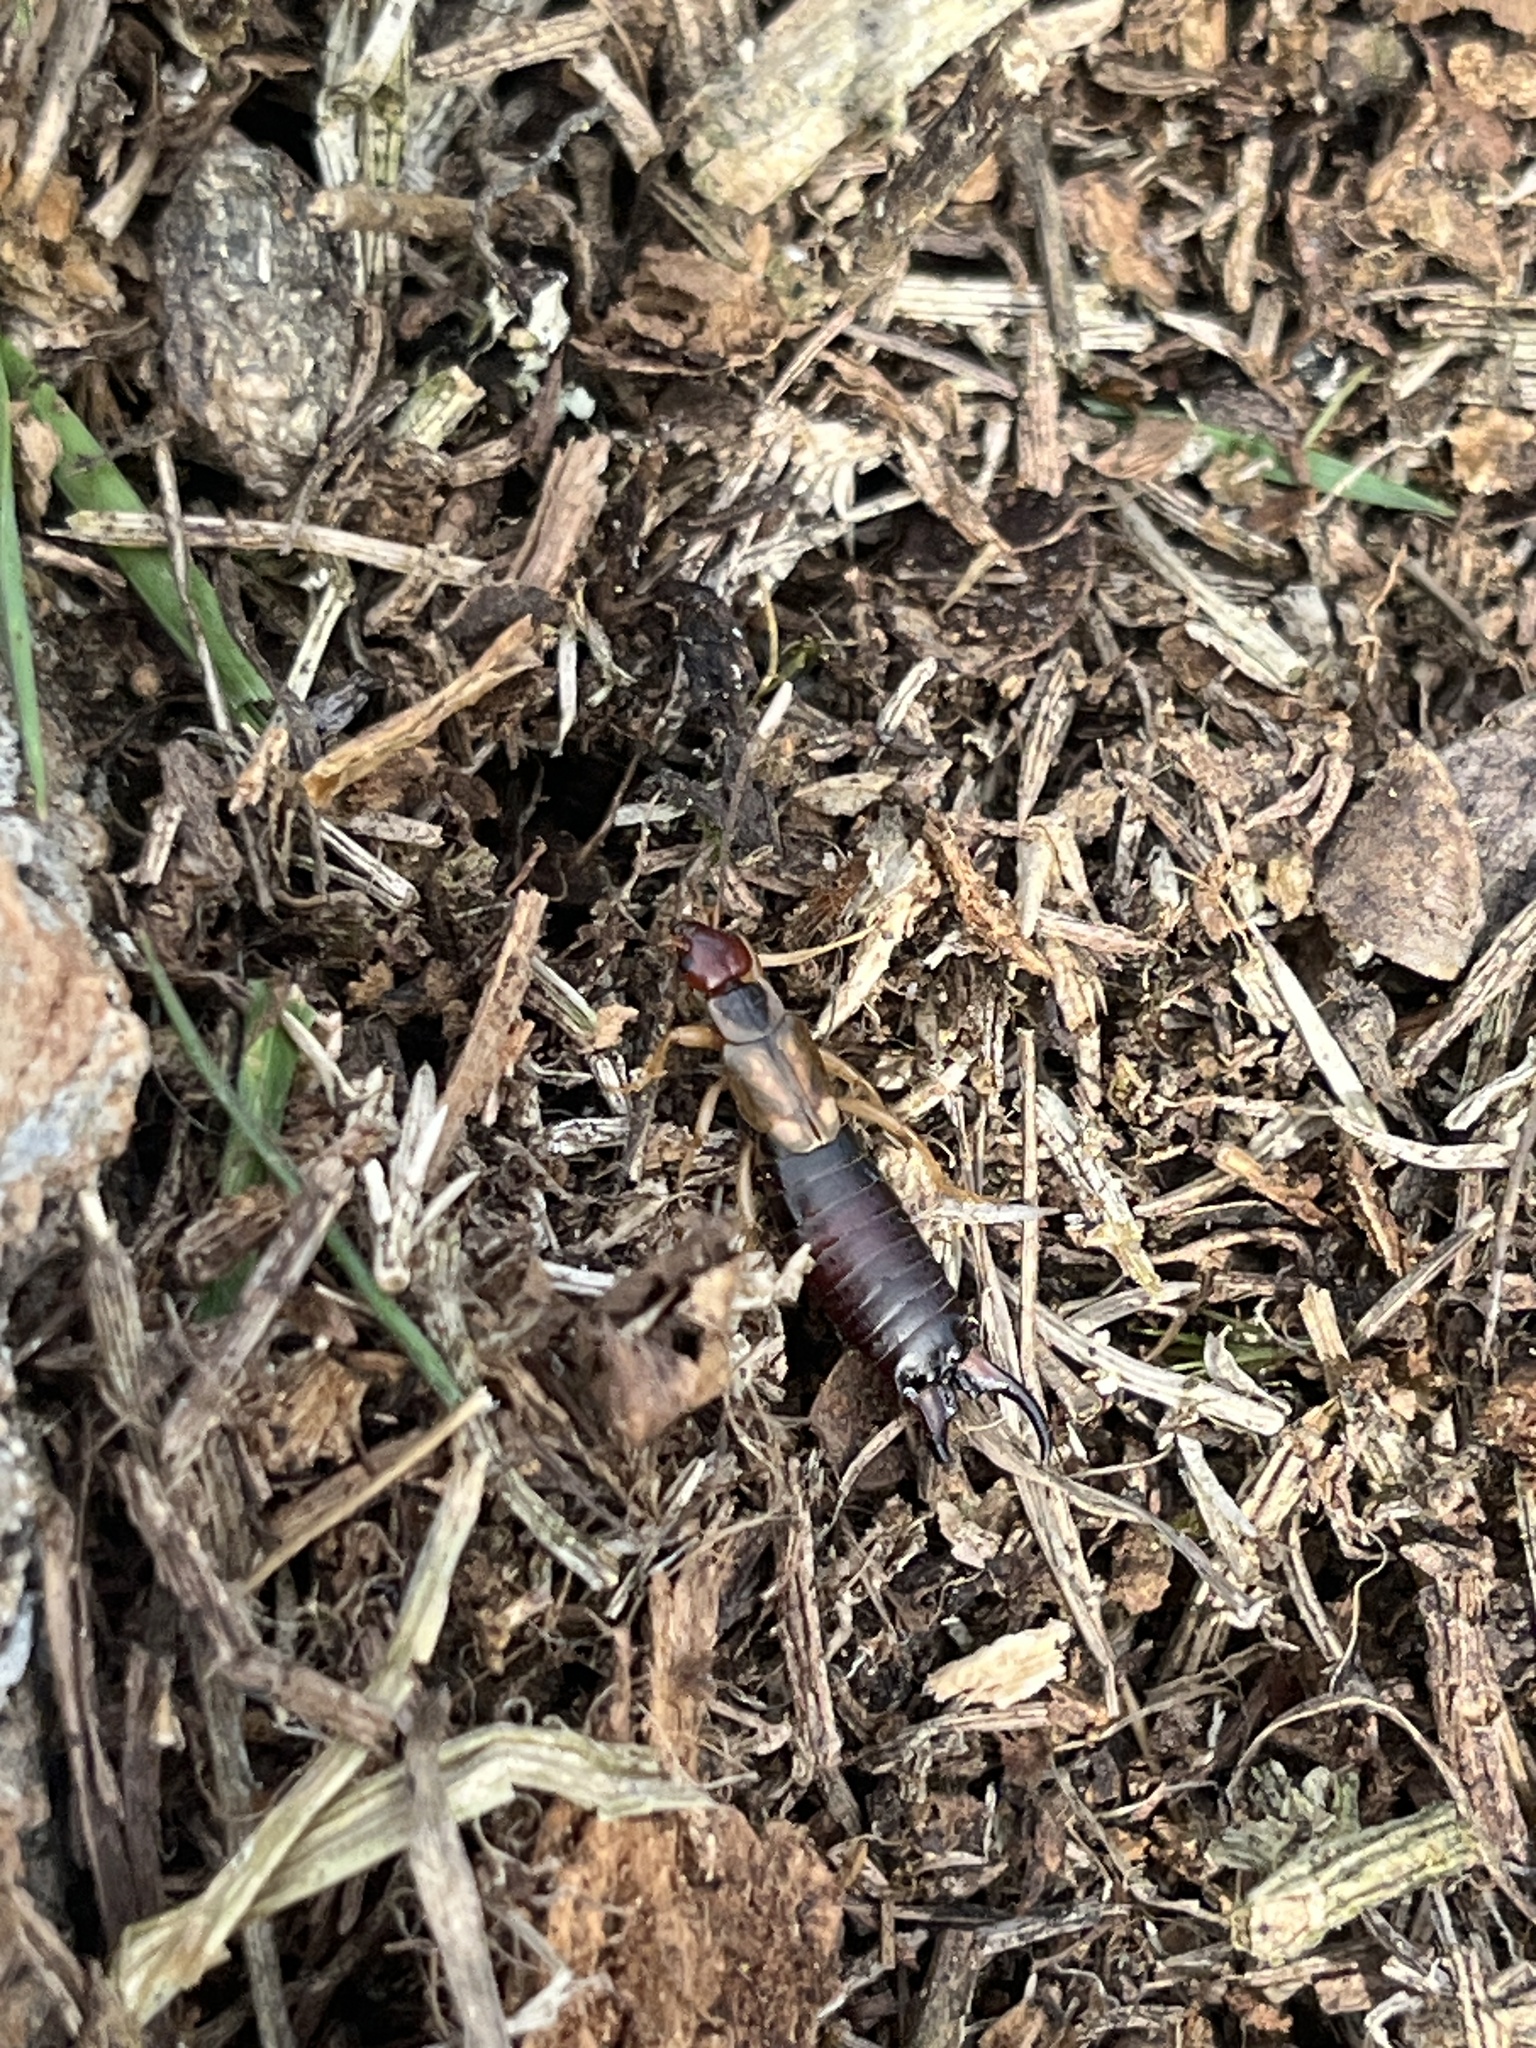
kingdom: Animalia
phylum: Arthropoda
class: Insecta
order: Dermaptera
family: Forficulidae
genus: Forficula
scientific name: Forficula dentata
